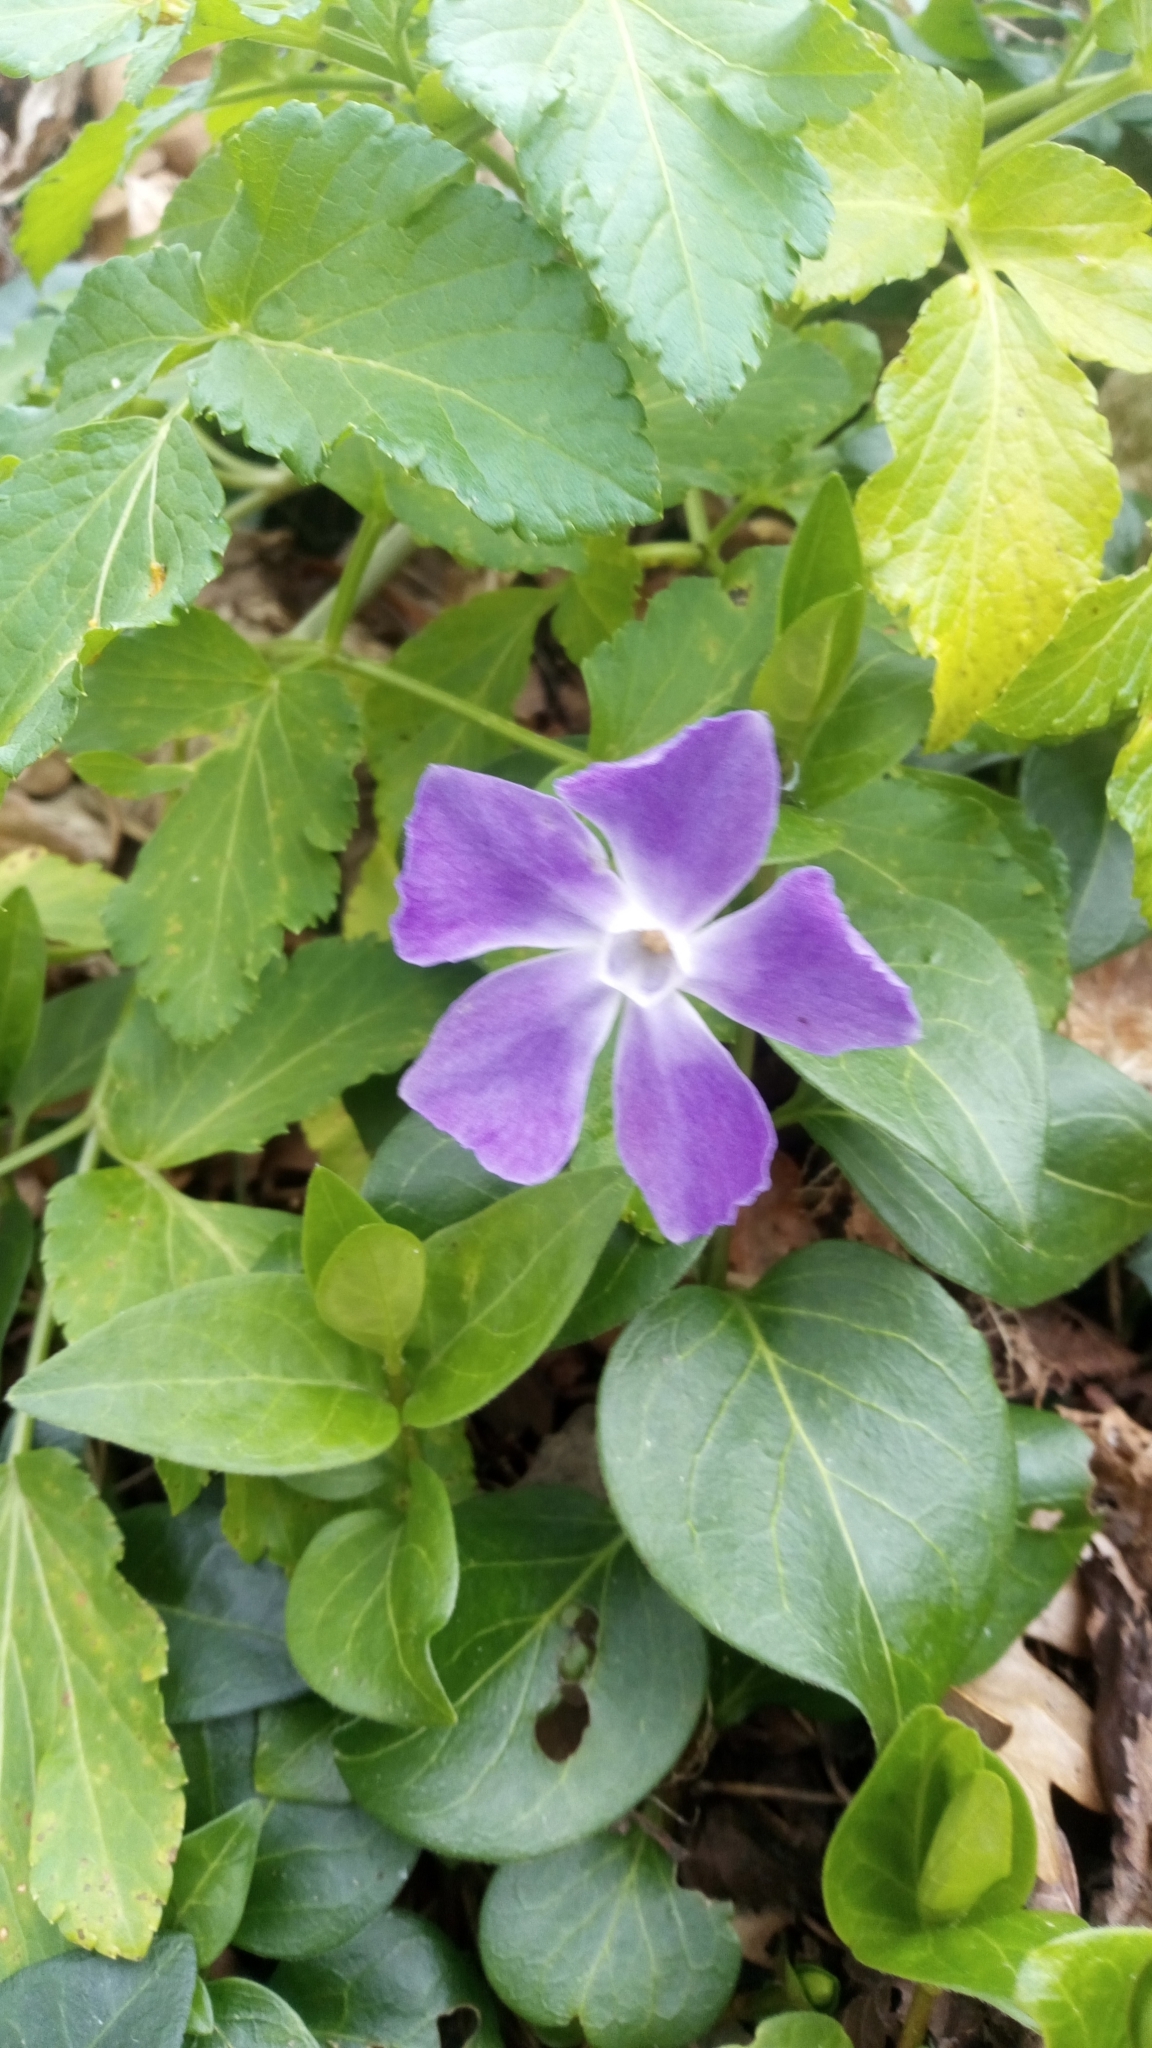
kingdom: Plantae
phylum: Tracheophyta
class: Magnoliopsida
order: Gentianales
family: Apocynaceae
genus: Vinca
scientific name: Vinca major
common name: Greater periwinkle
